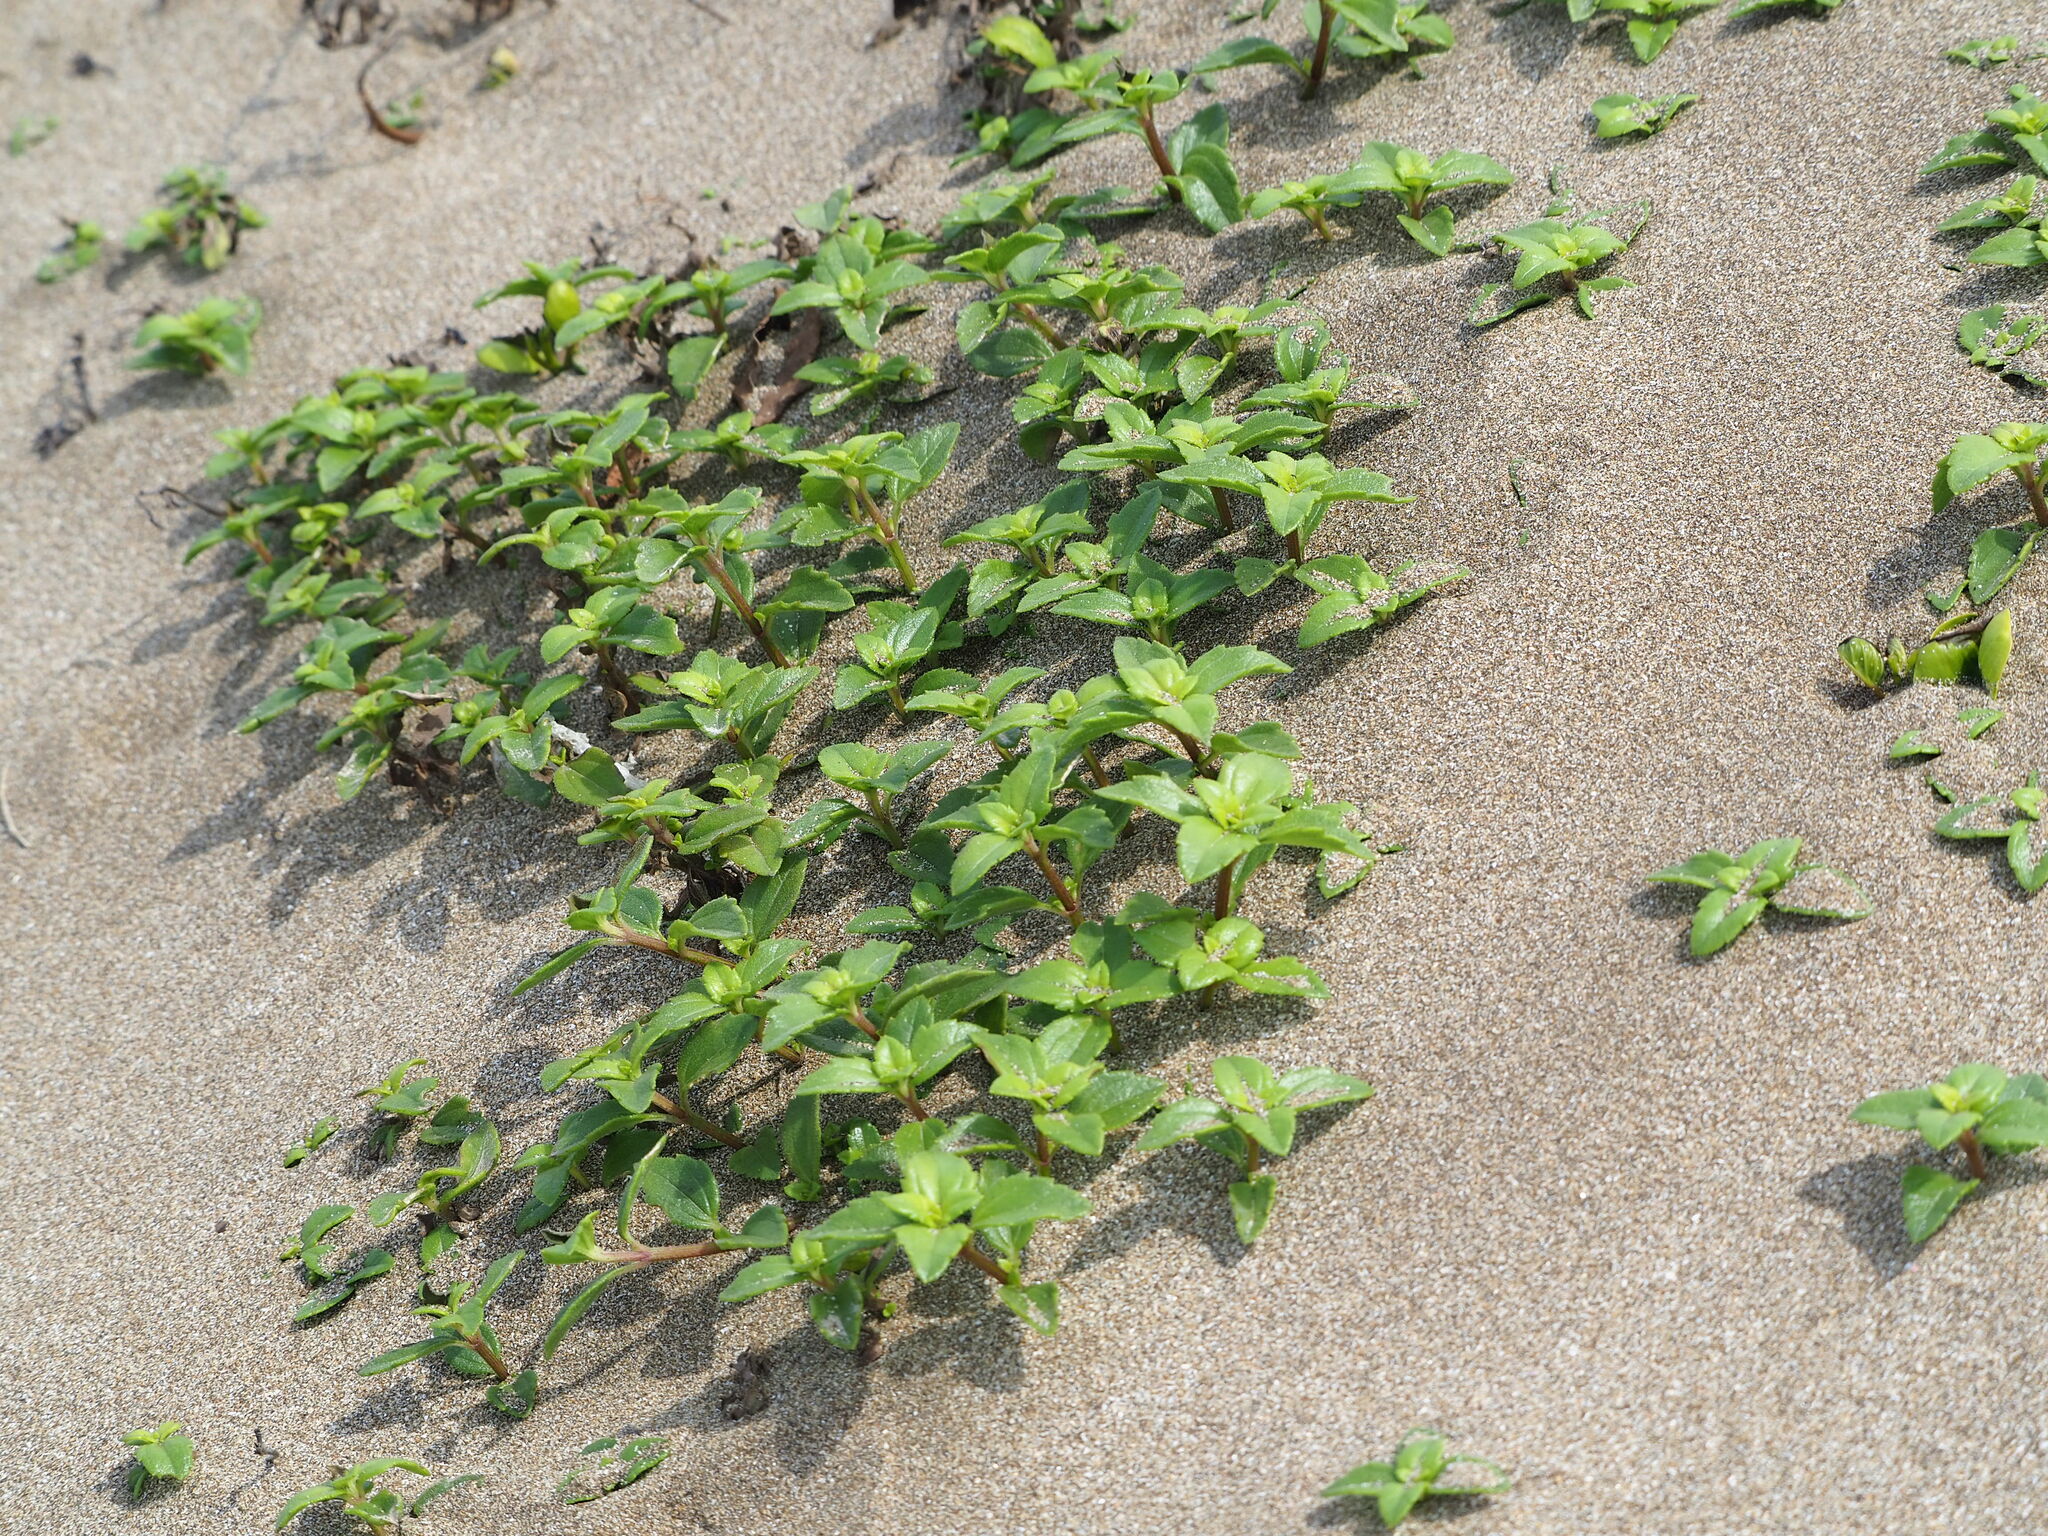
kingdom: Plantae
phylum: Tracheophyta
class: Magnoliopsida
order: Asterales
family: Asteraceae
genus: Melanthera
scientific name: Melanthera prostrata
